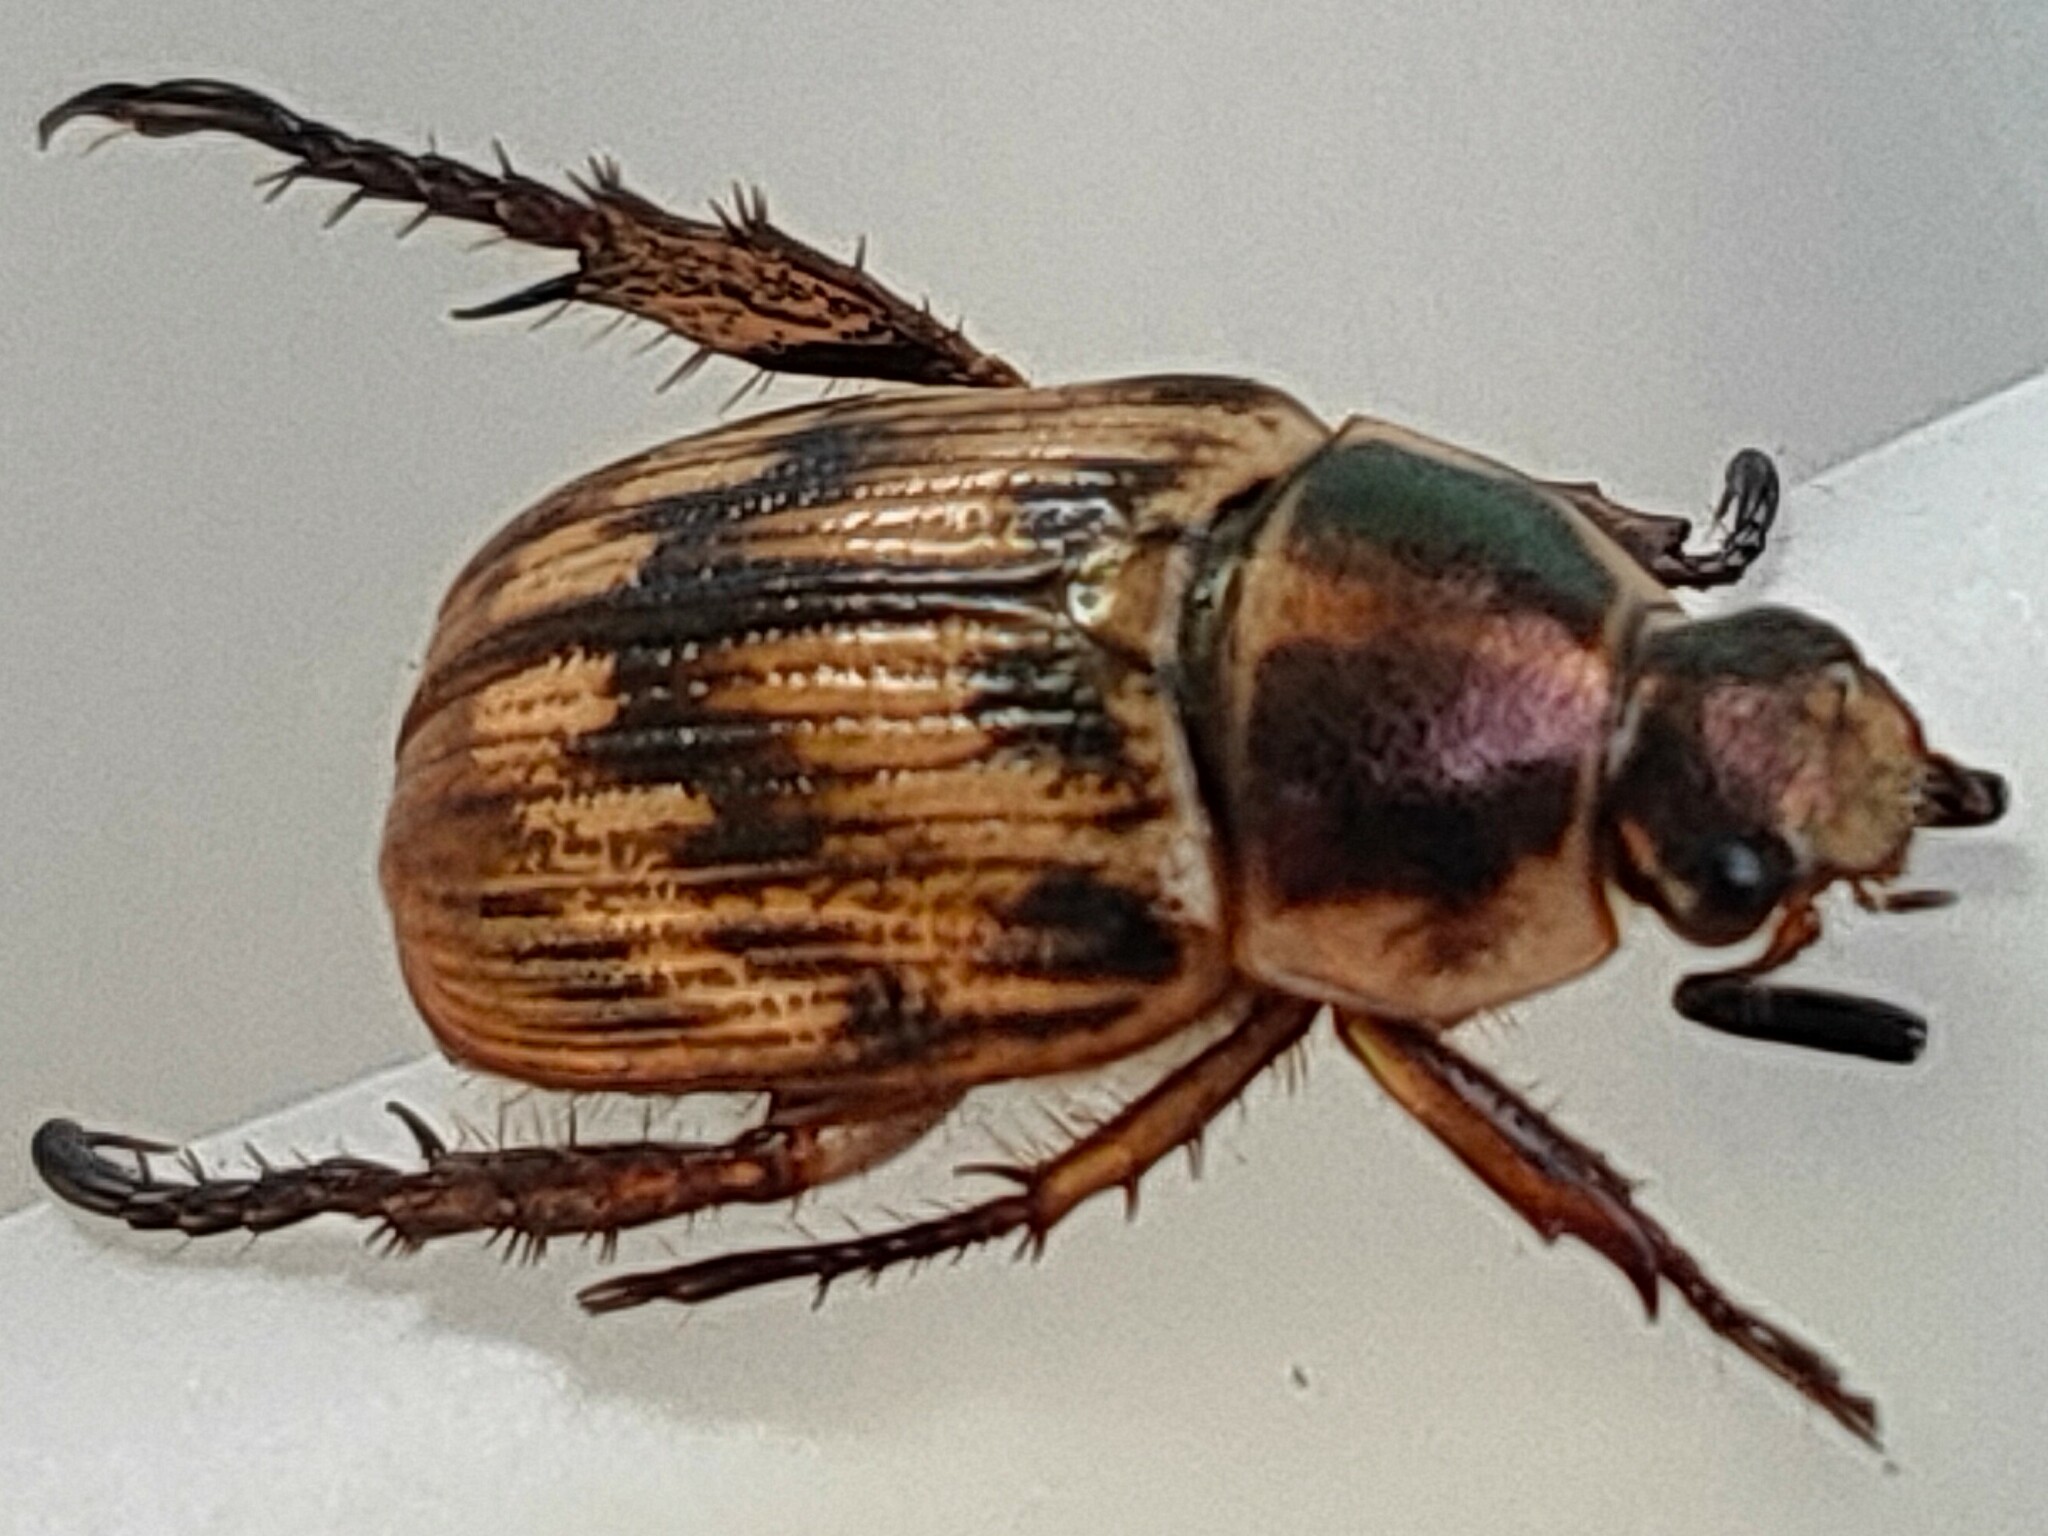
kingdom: Animalia
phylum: Arthropoda
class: Insecta
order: Coleoptera
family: Scarabaeidae
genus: Exomala
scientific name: Exomala orientalis
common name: Oriental beetle
